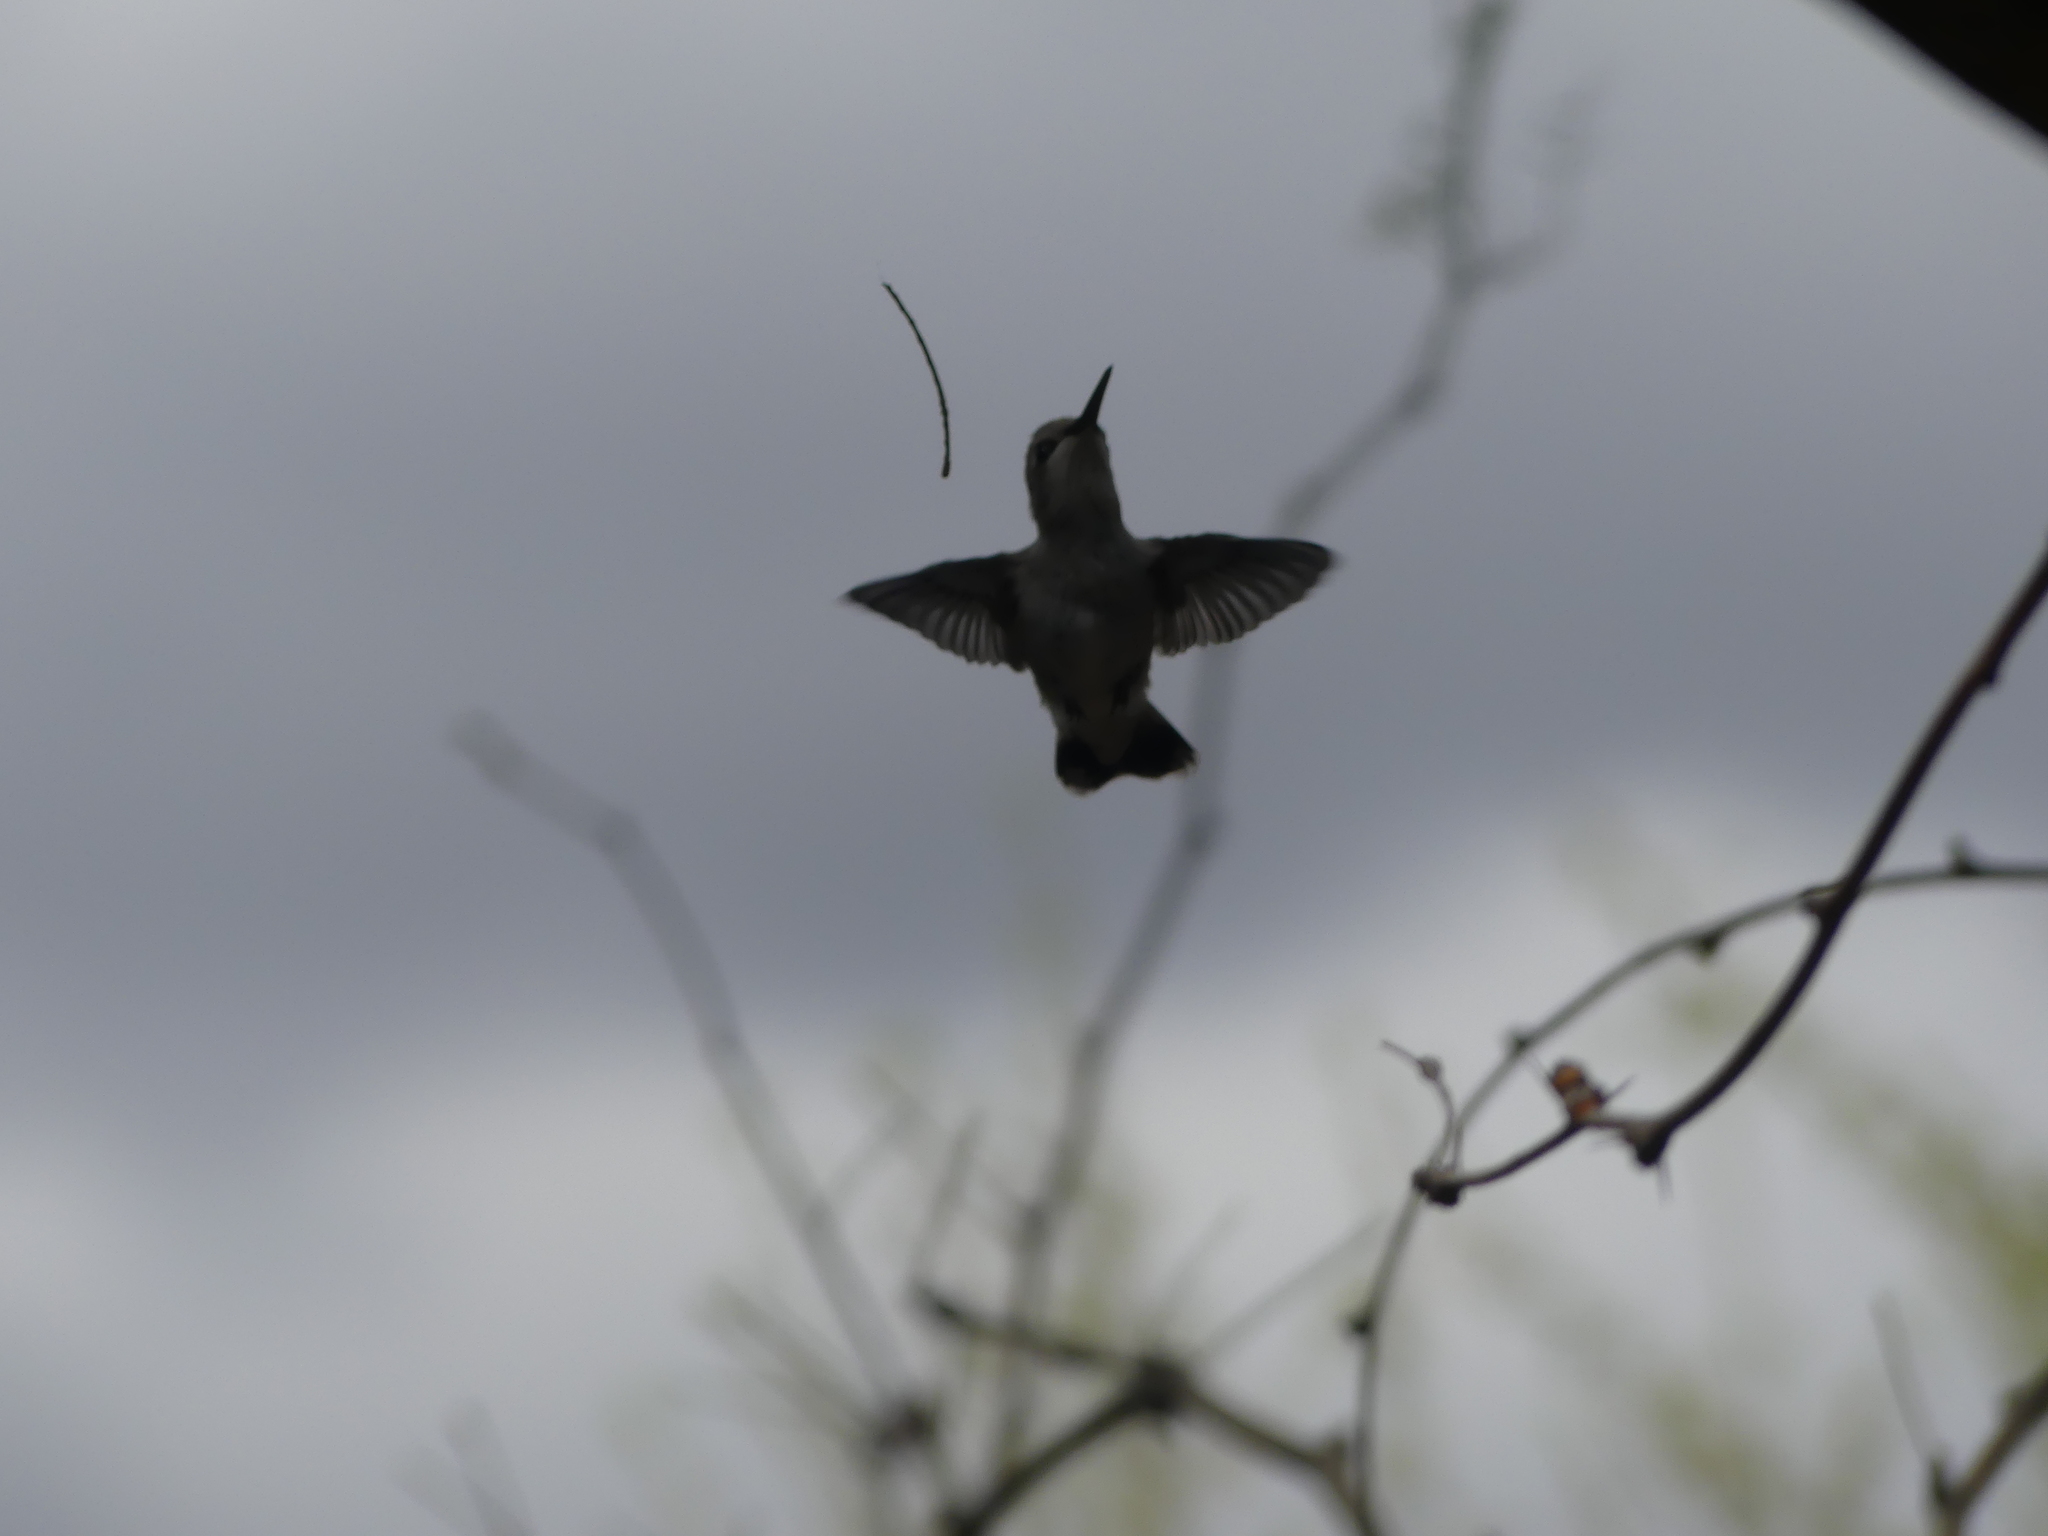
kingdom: Animalia
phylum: Chordata
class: Aves
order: Apodiformes
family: Trochilidae
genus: Calypte
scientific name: Calypte costae
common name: Costa's hummingbird
